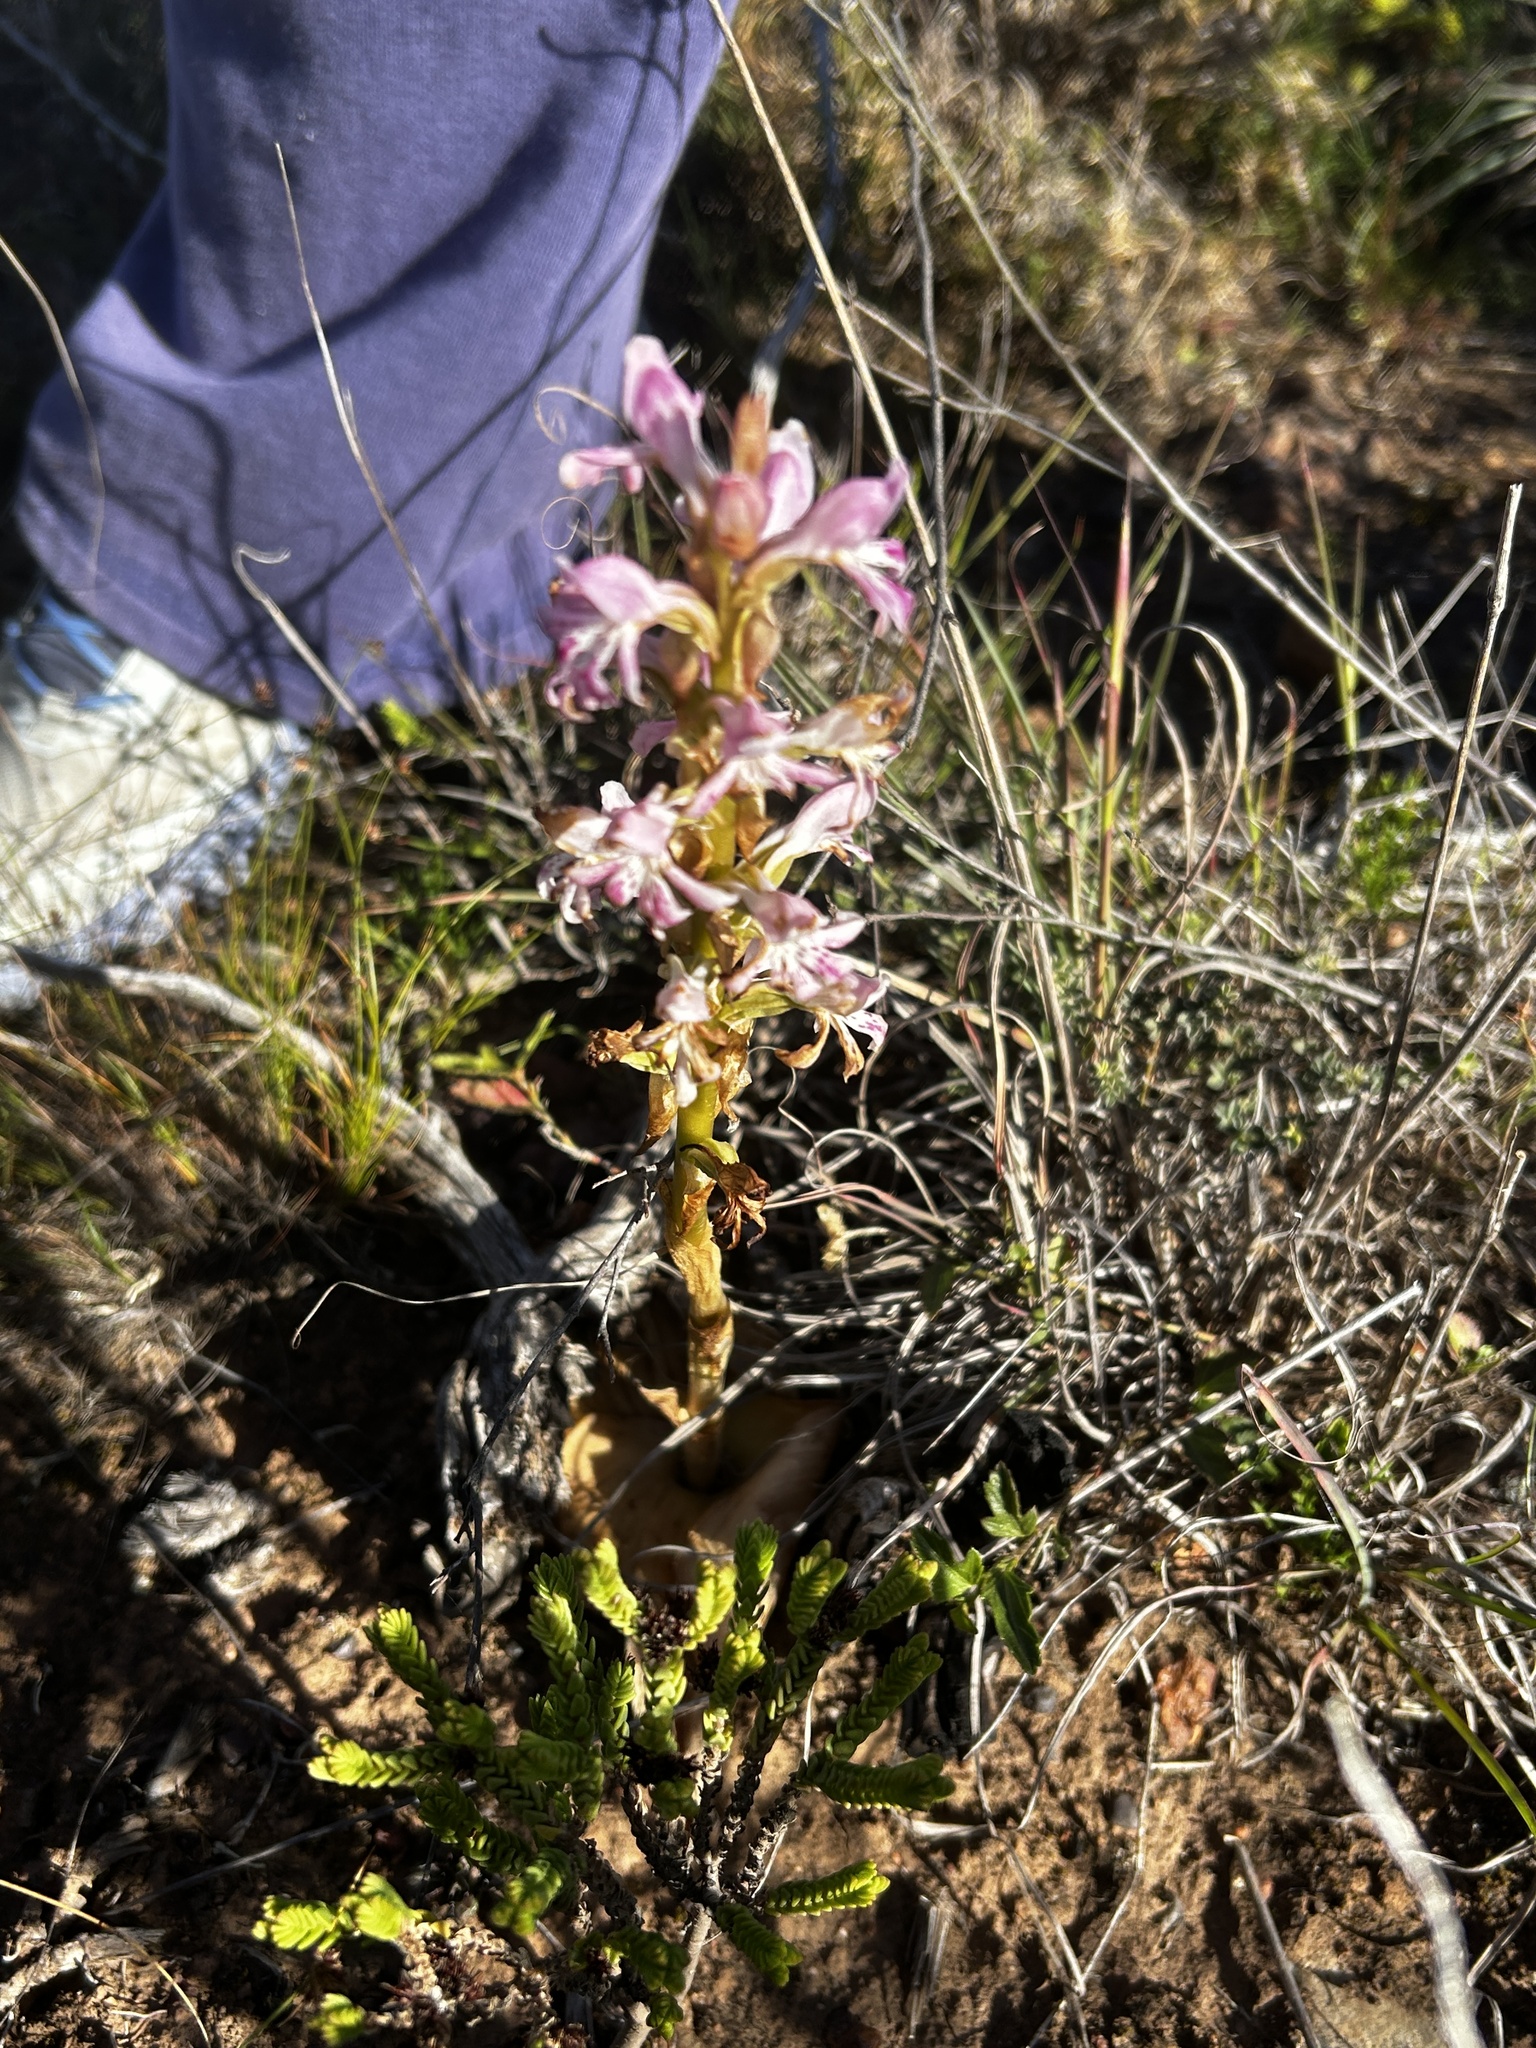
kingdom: Plantae
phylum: Tracheophyta
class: Liliopsida
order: Asparagales
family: Orchidaceae
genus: Satyrium
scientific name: Satyrium erectum
